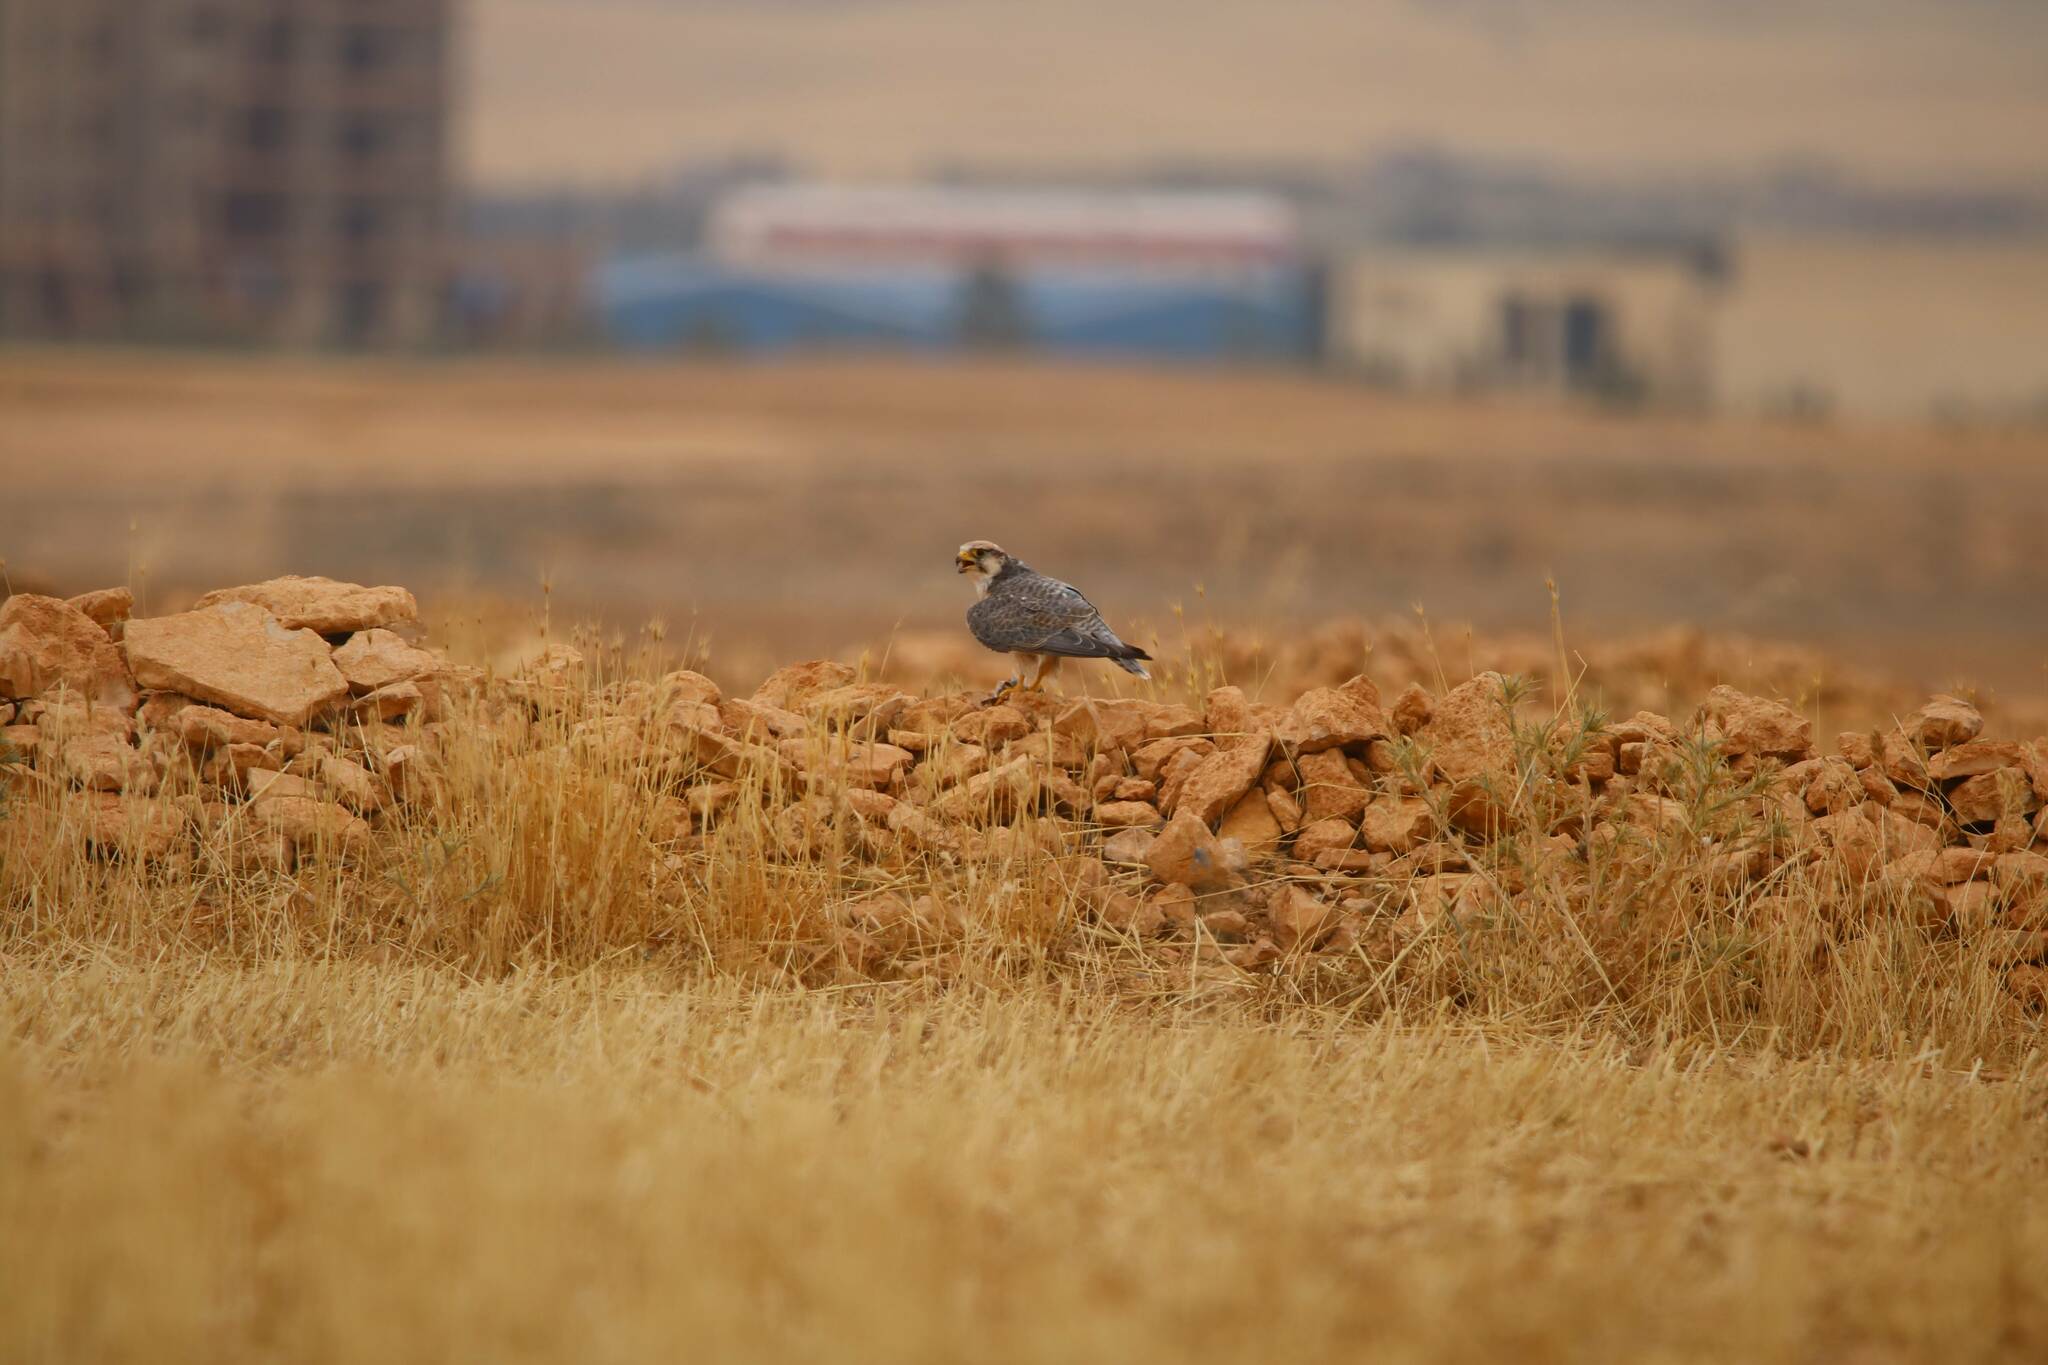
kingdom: Animalia
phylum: Chordata
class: Aves
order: Falconiformes
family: Falconidae
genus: Falco
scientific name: Falco biarmicus
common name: Lanner falcon
